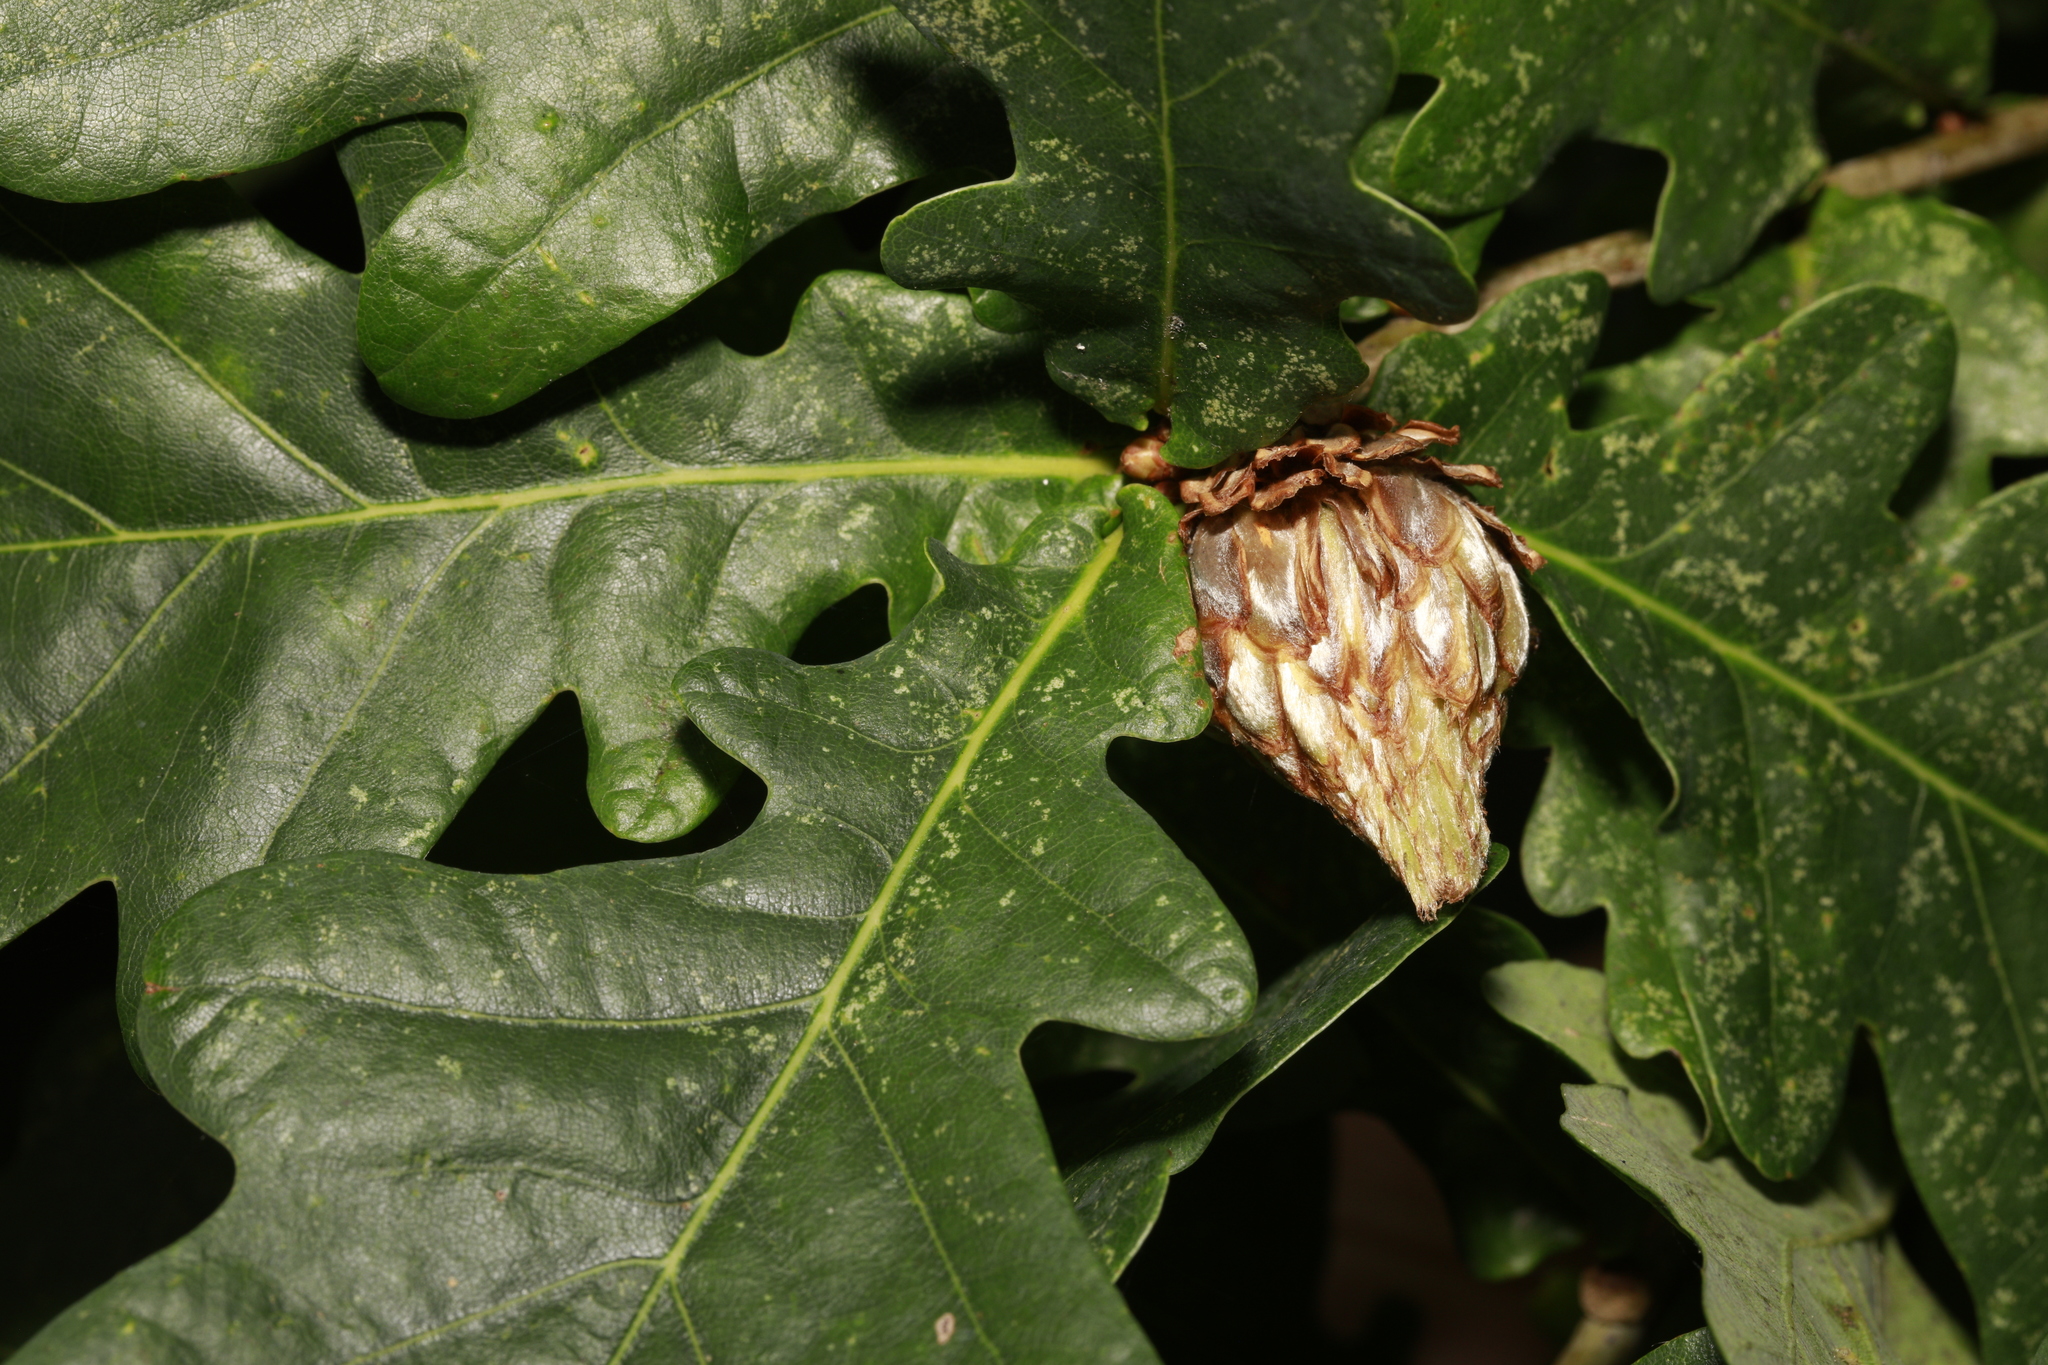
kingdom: Animalia
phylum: Arthropoda
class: Insecta
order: Hymenoptera
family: Cynipidae
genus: Andricus
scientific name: Andricus foecundatrix
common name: Artichoke gall
